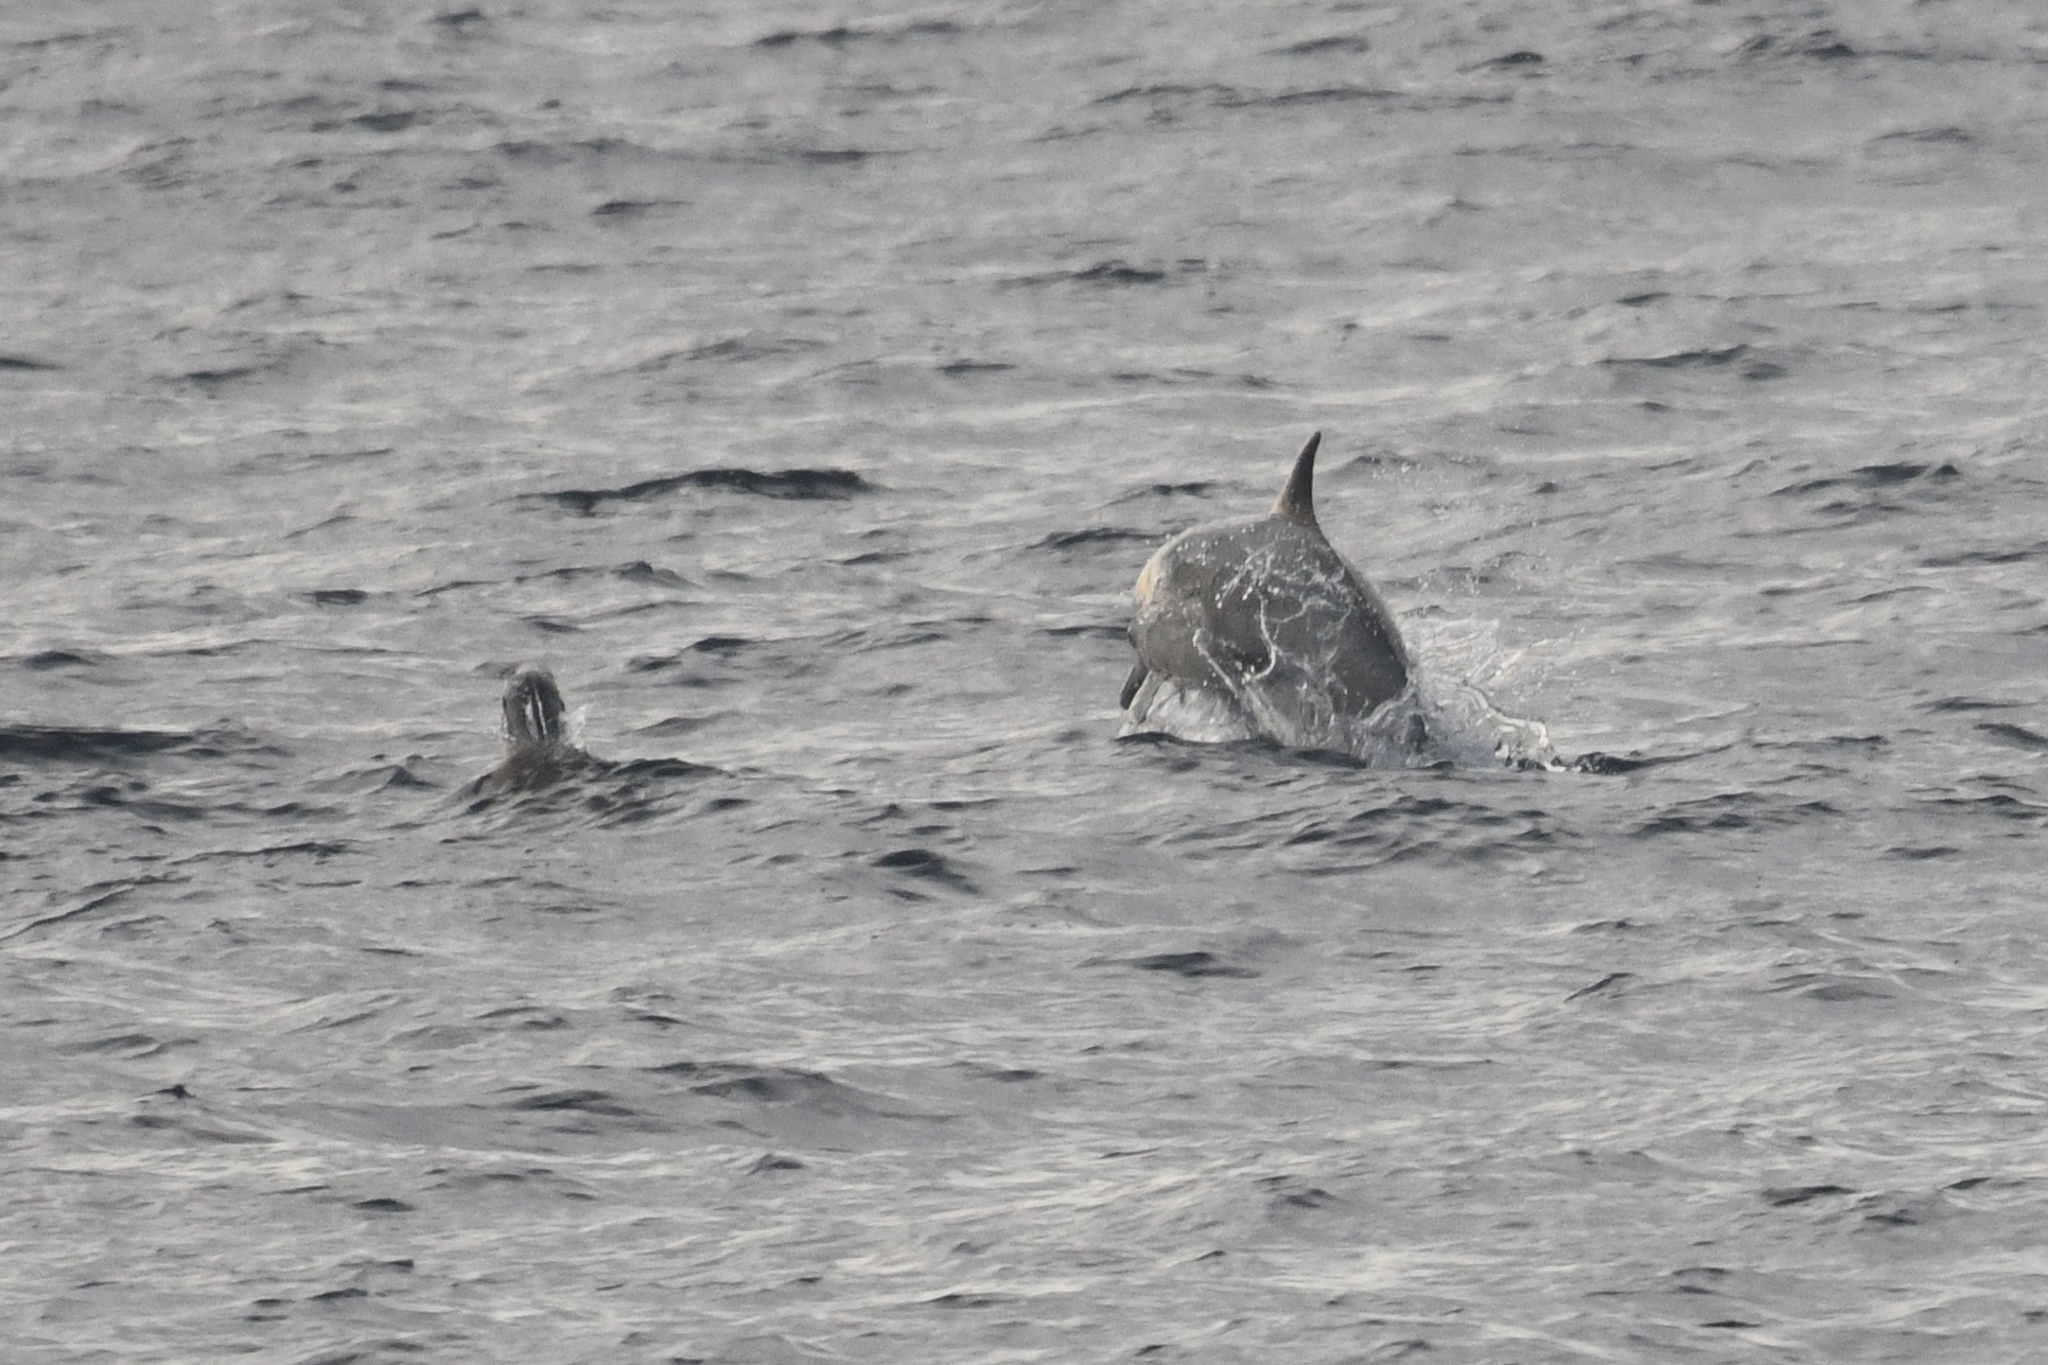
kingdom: Animalia
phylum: Chordata
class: Mammalia
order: Cetacea
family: Delphinidae
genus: Delphinus
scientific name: Delphinus delphis
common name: Common dolphin
